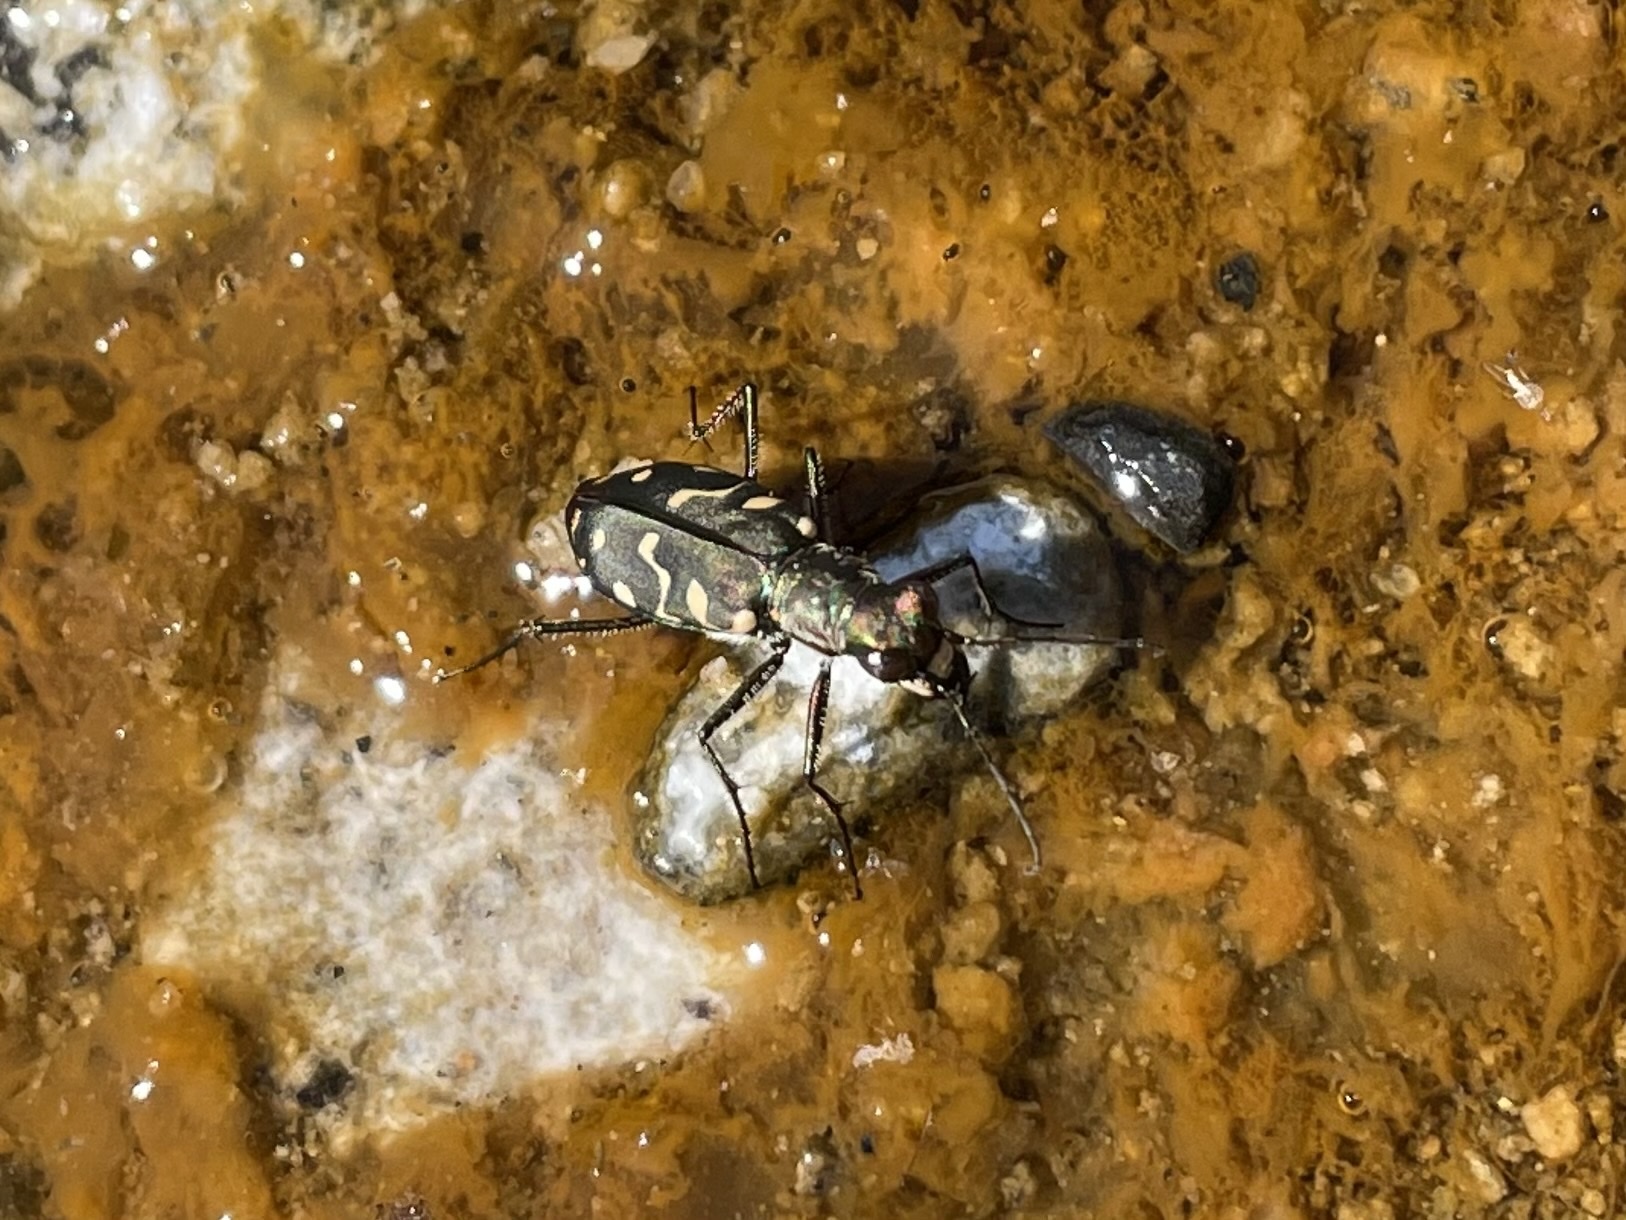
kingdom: Animalia
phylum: Arthropoda
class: Insecta
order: Coleoptera
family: Carabidae
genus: Cicindela
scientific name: Cicindela hemorrhagica
